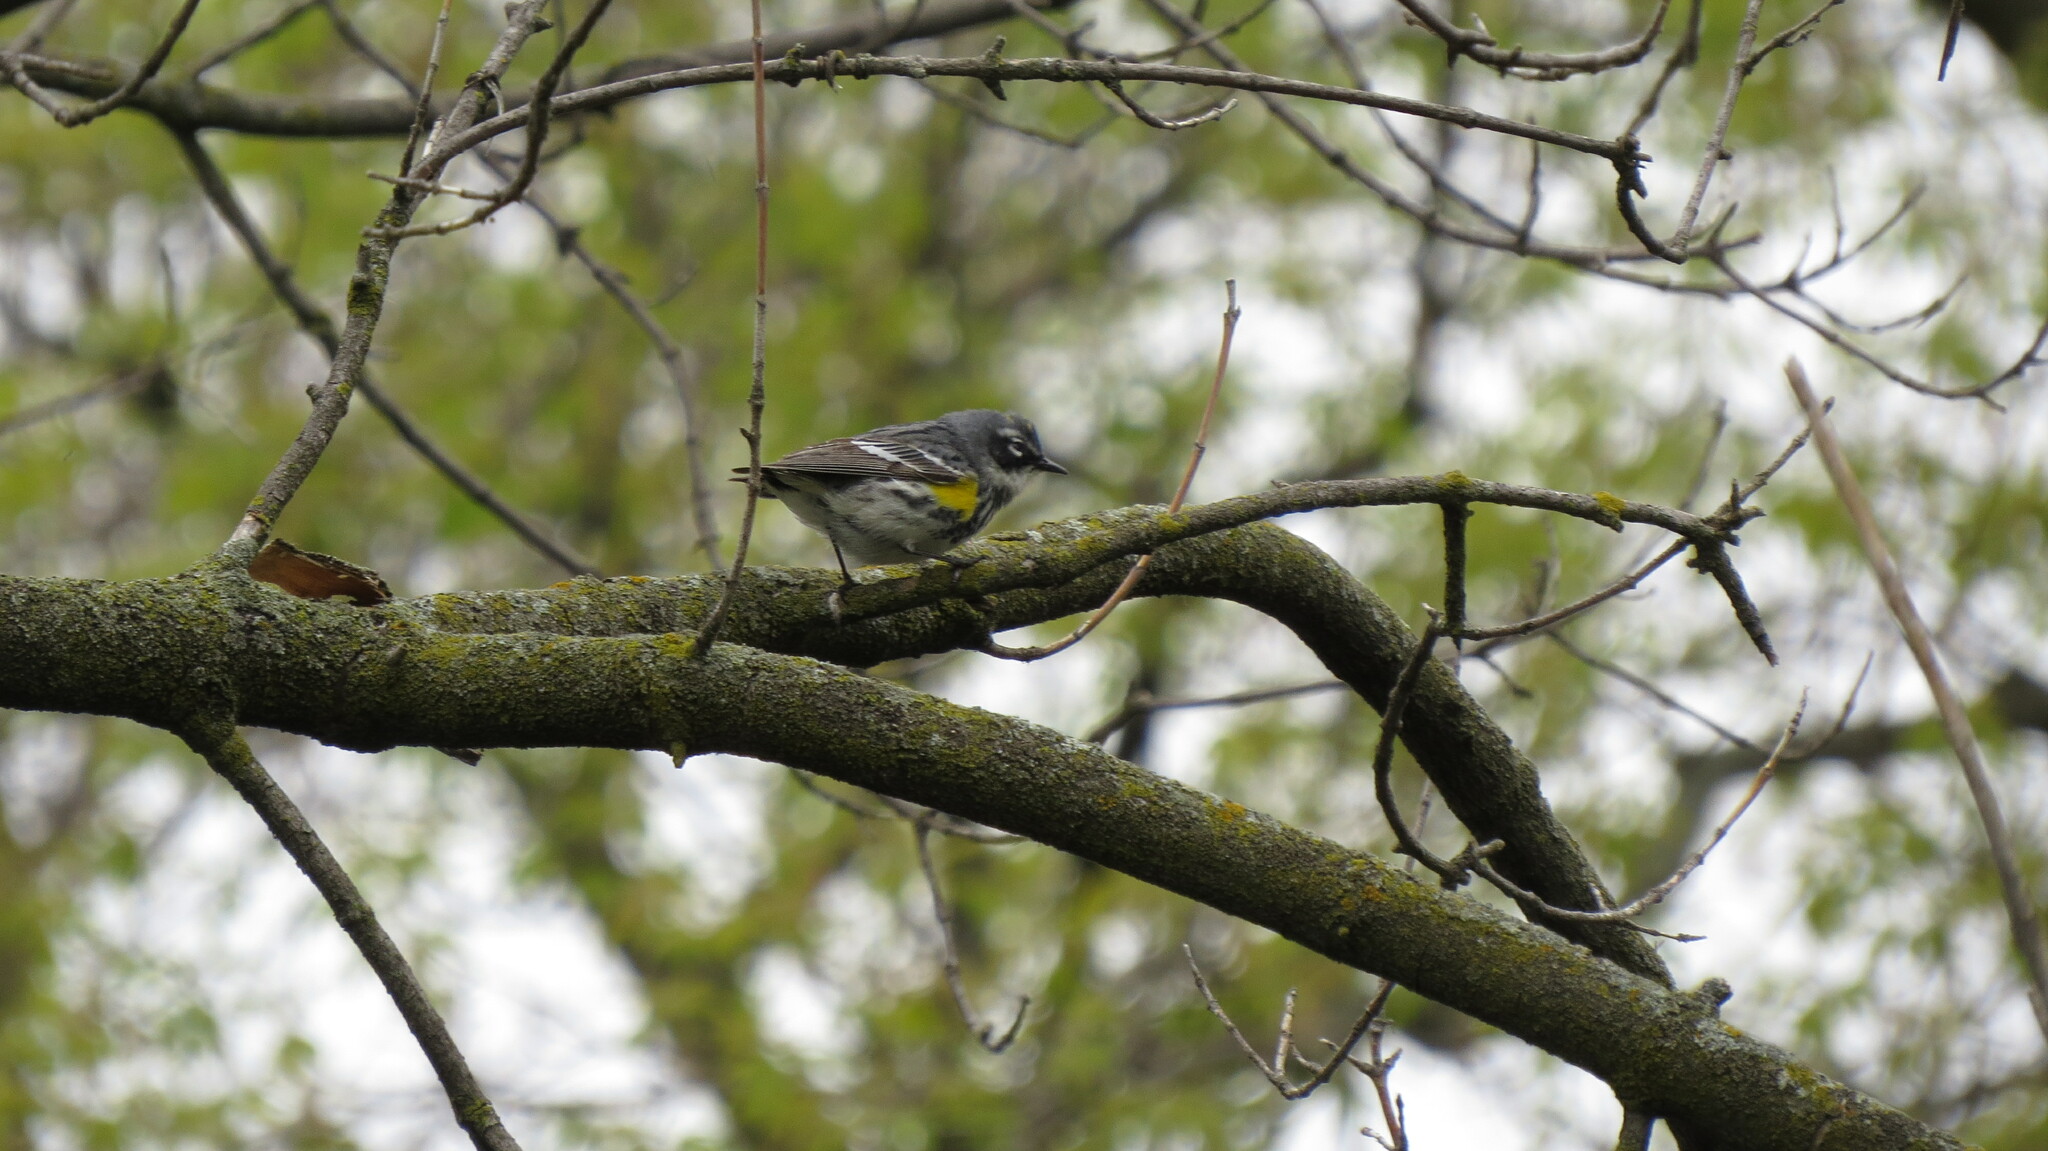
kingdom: Animalia
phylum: Chordata
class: Aves
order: Passeriformes
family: Parulidae
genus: Setophaga
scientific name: Setophaga coronata
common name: Myrtle warbler
